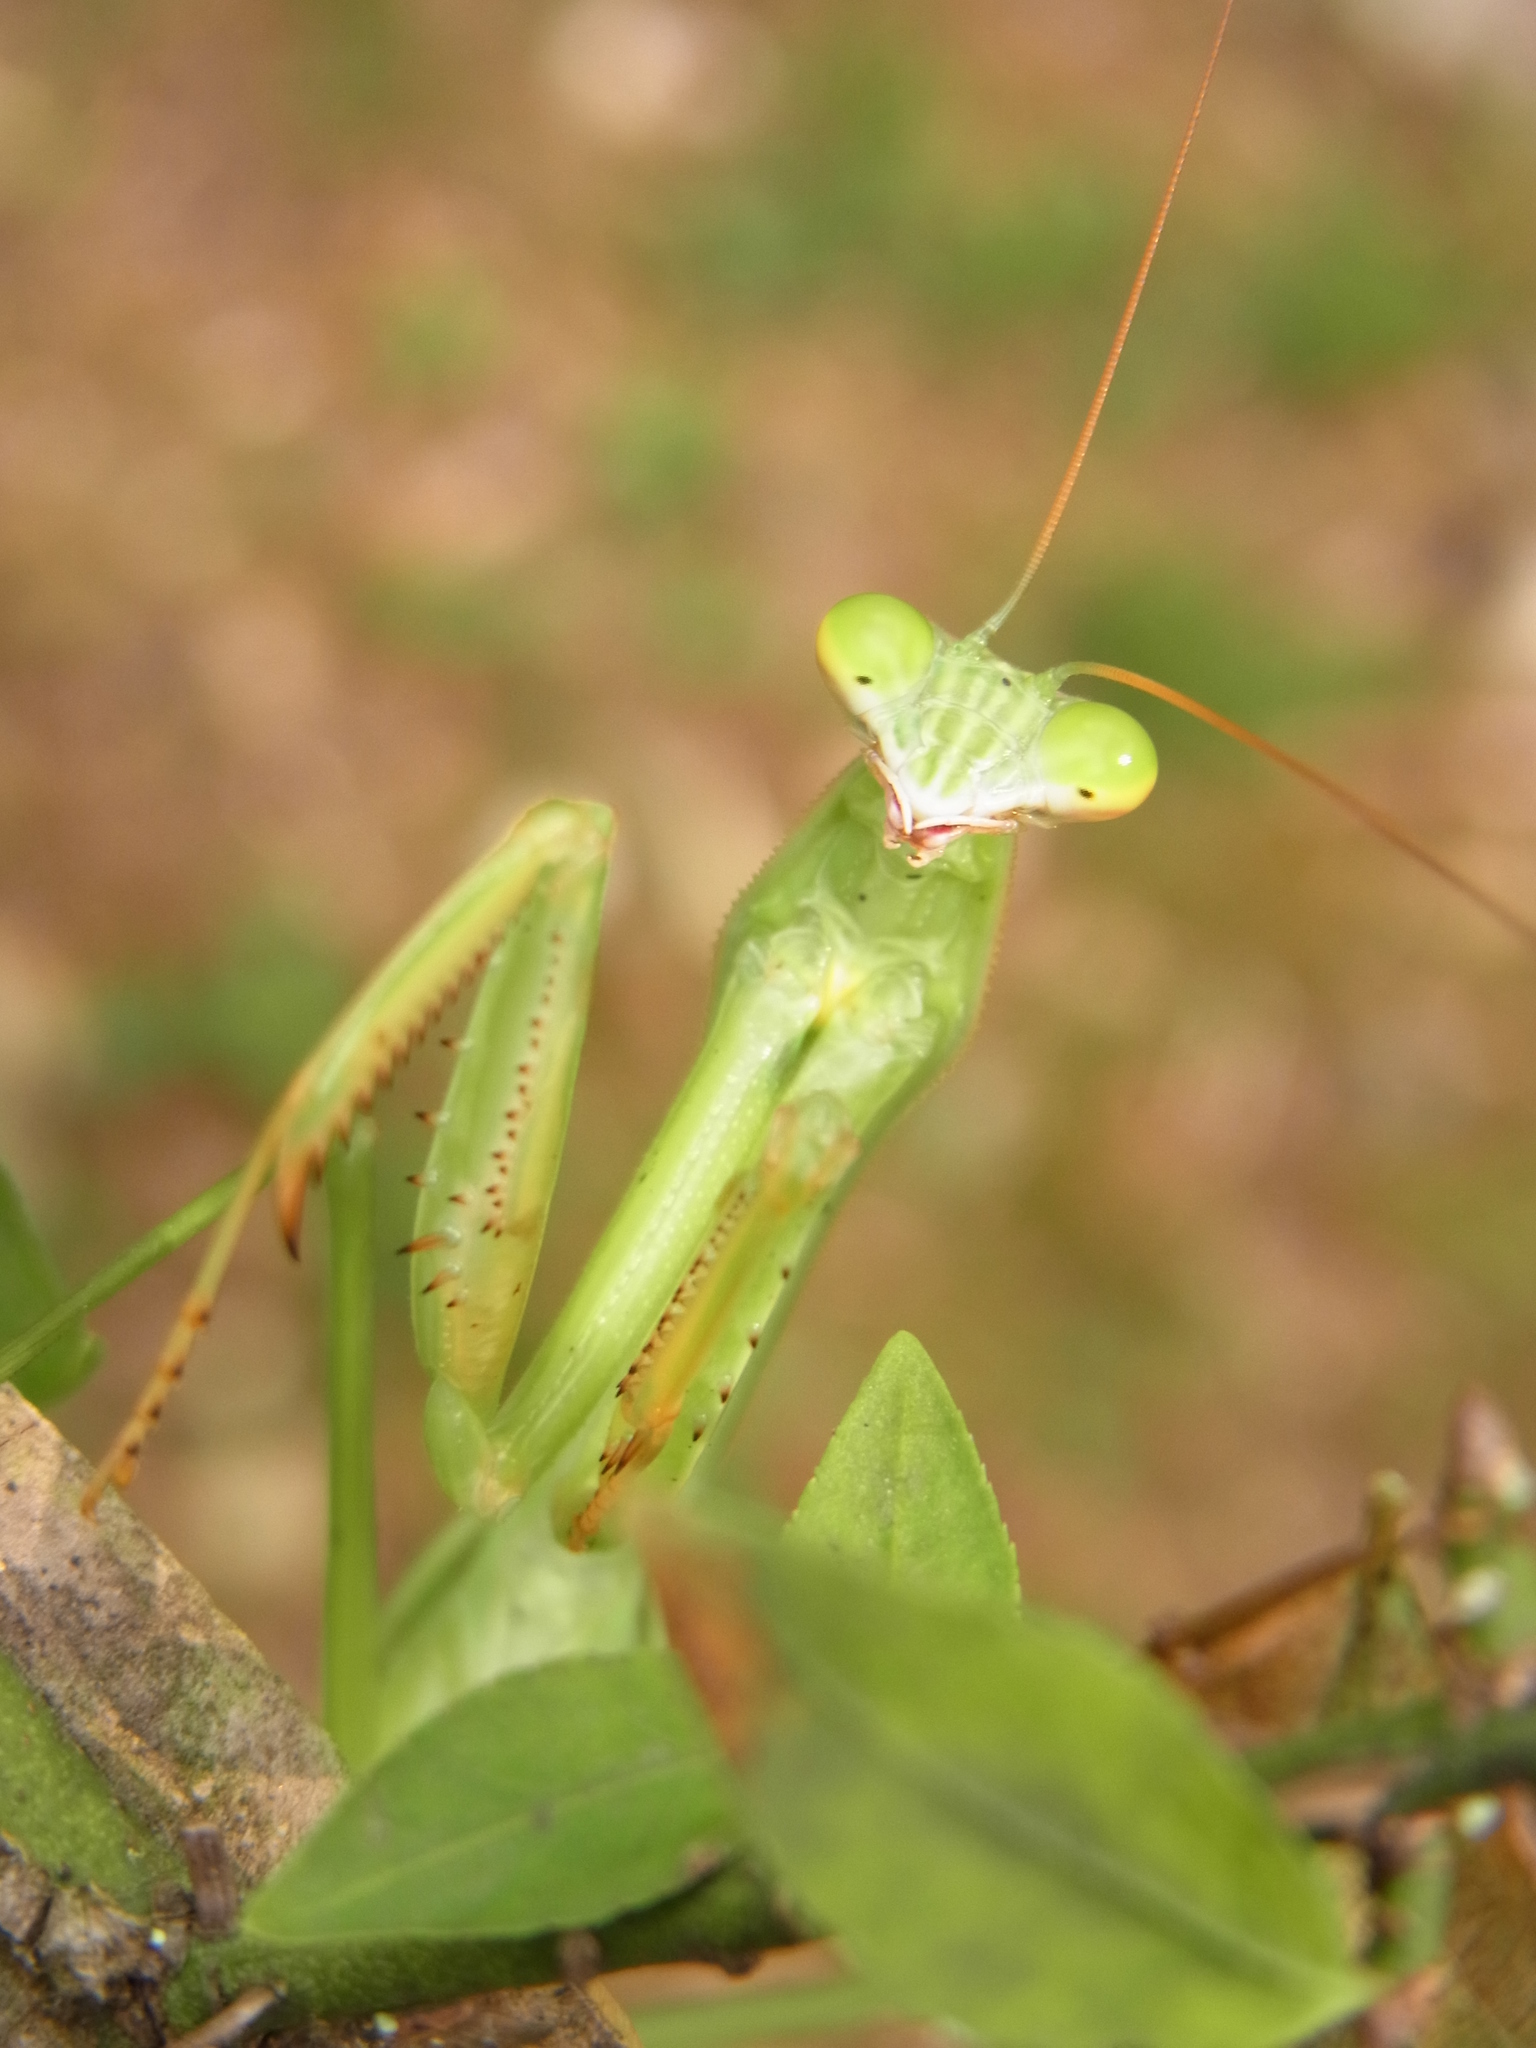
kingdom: Animalia
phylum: Arthropoda
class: Insecta
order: Mantodea
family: Mantidae
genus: Tenodera
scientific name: Tenodera sinensis
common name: Chinese mantis
